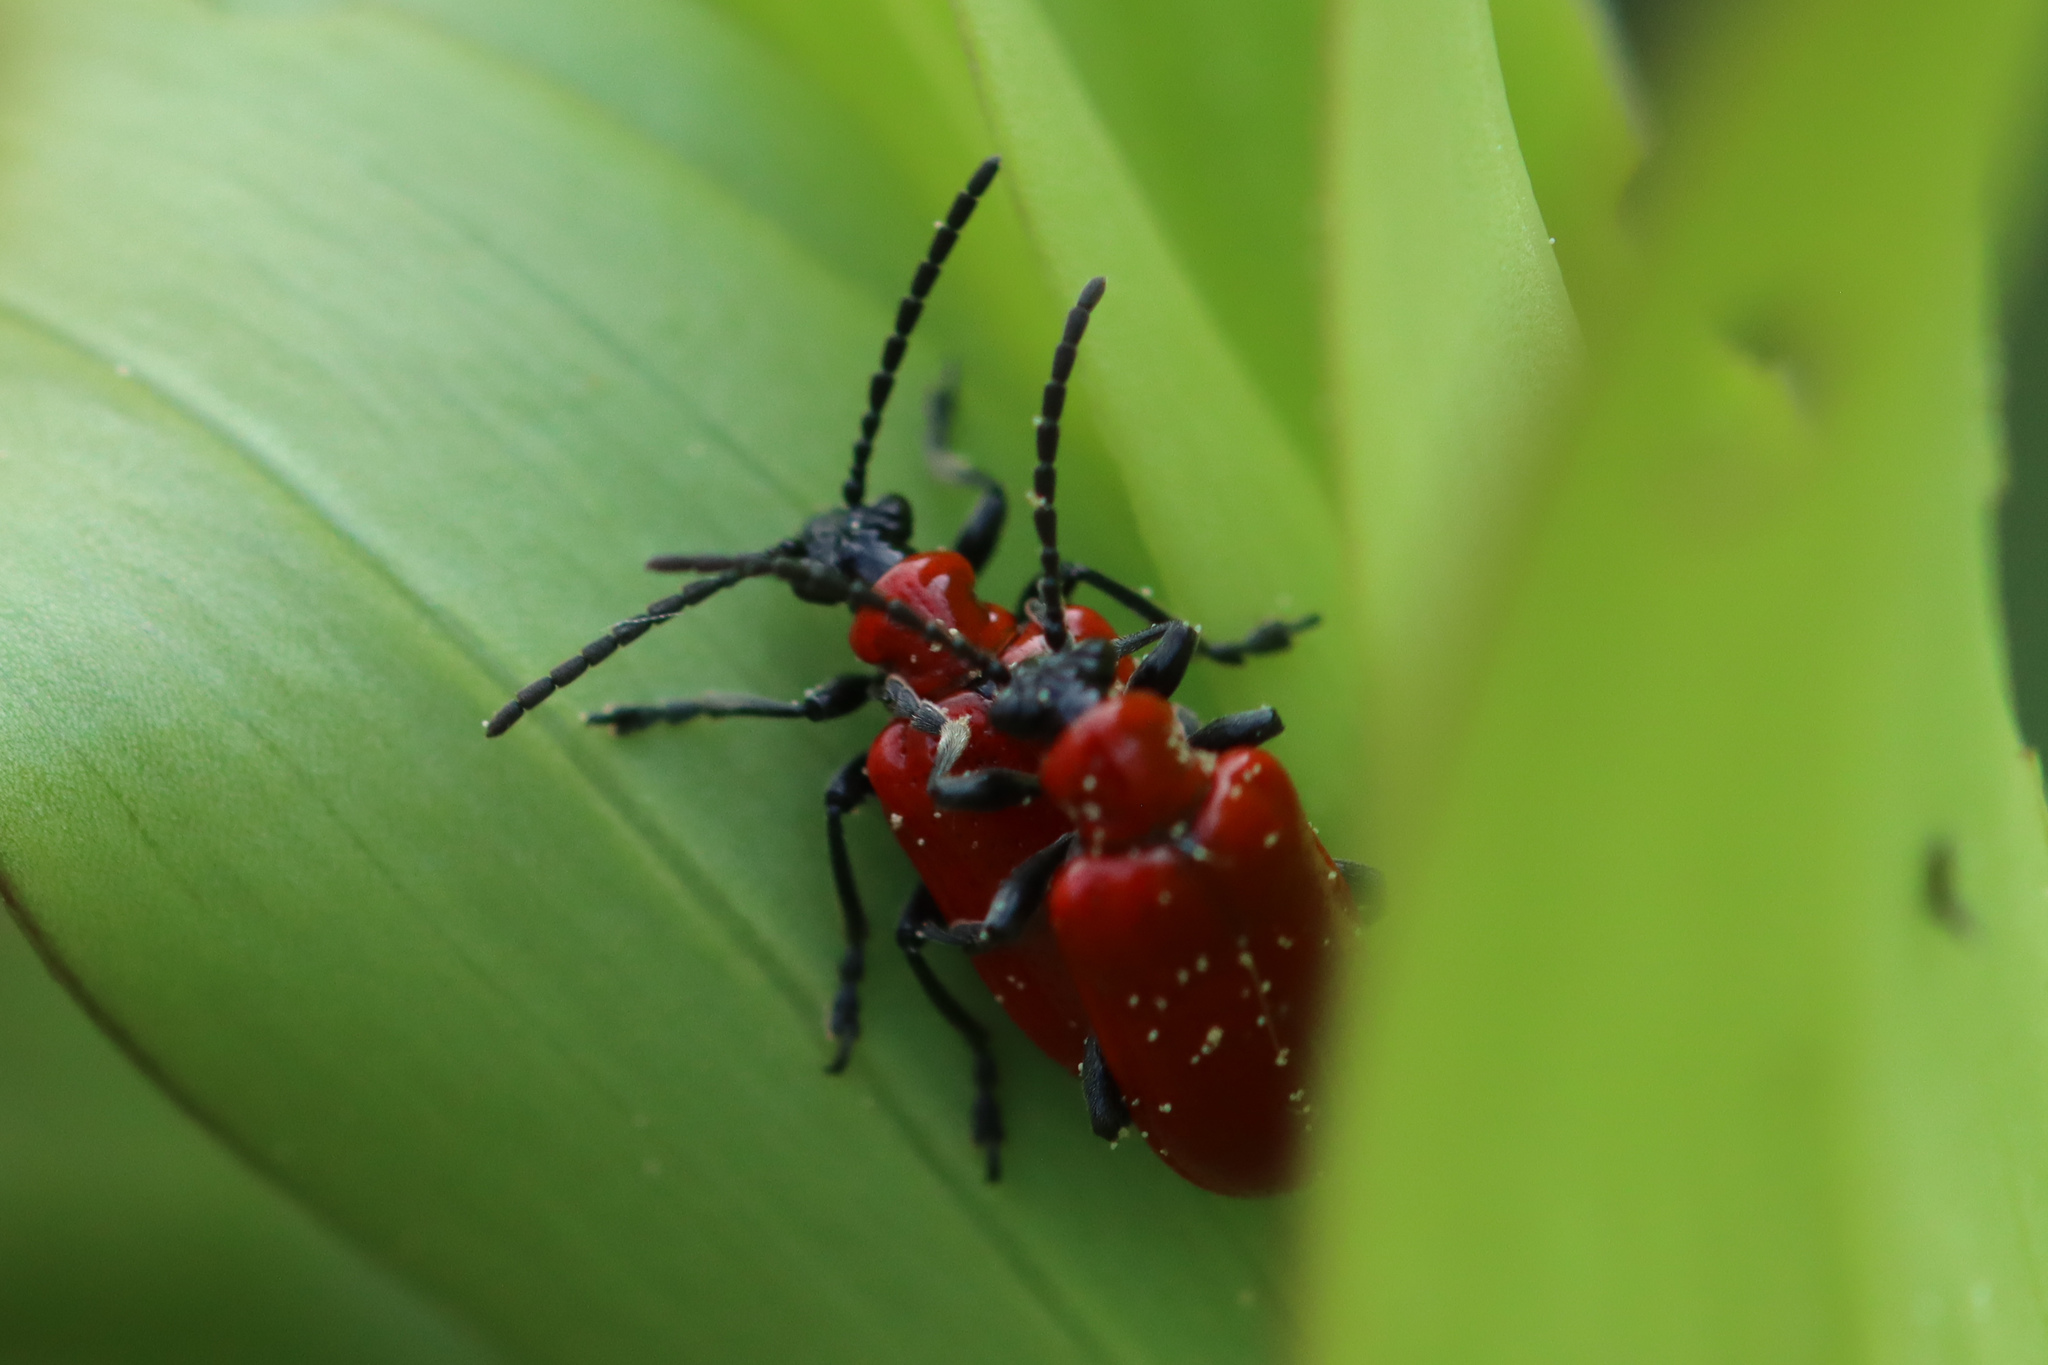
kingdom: Animalia
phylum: Arthropoda
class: Insecta
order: Coleoptera
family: Chrysomelidae
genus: Lilioceris
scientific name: Lilioceris lilii
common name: Lily beetle
